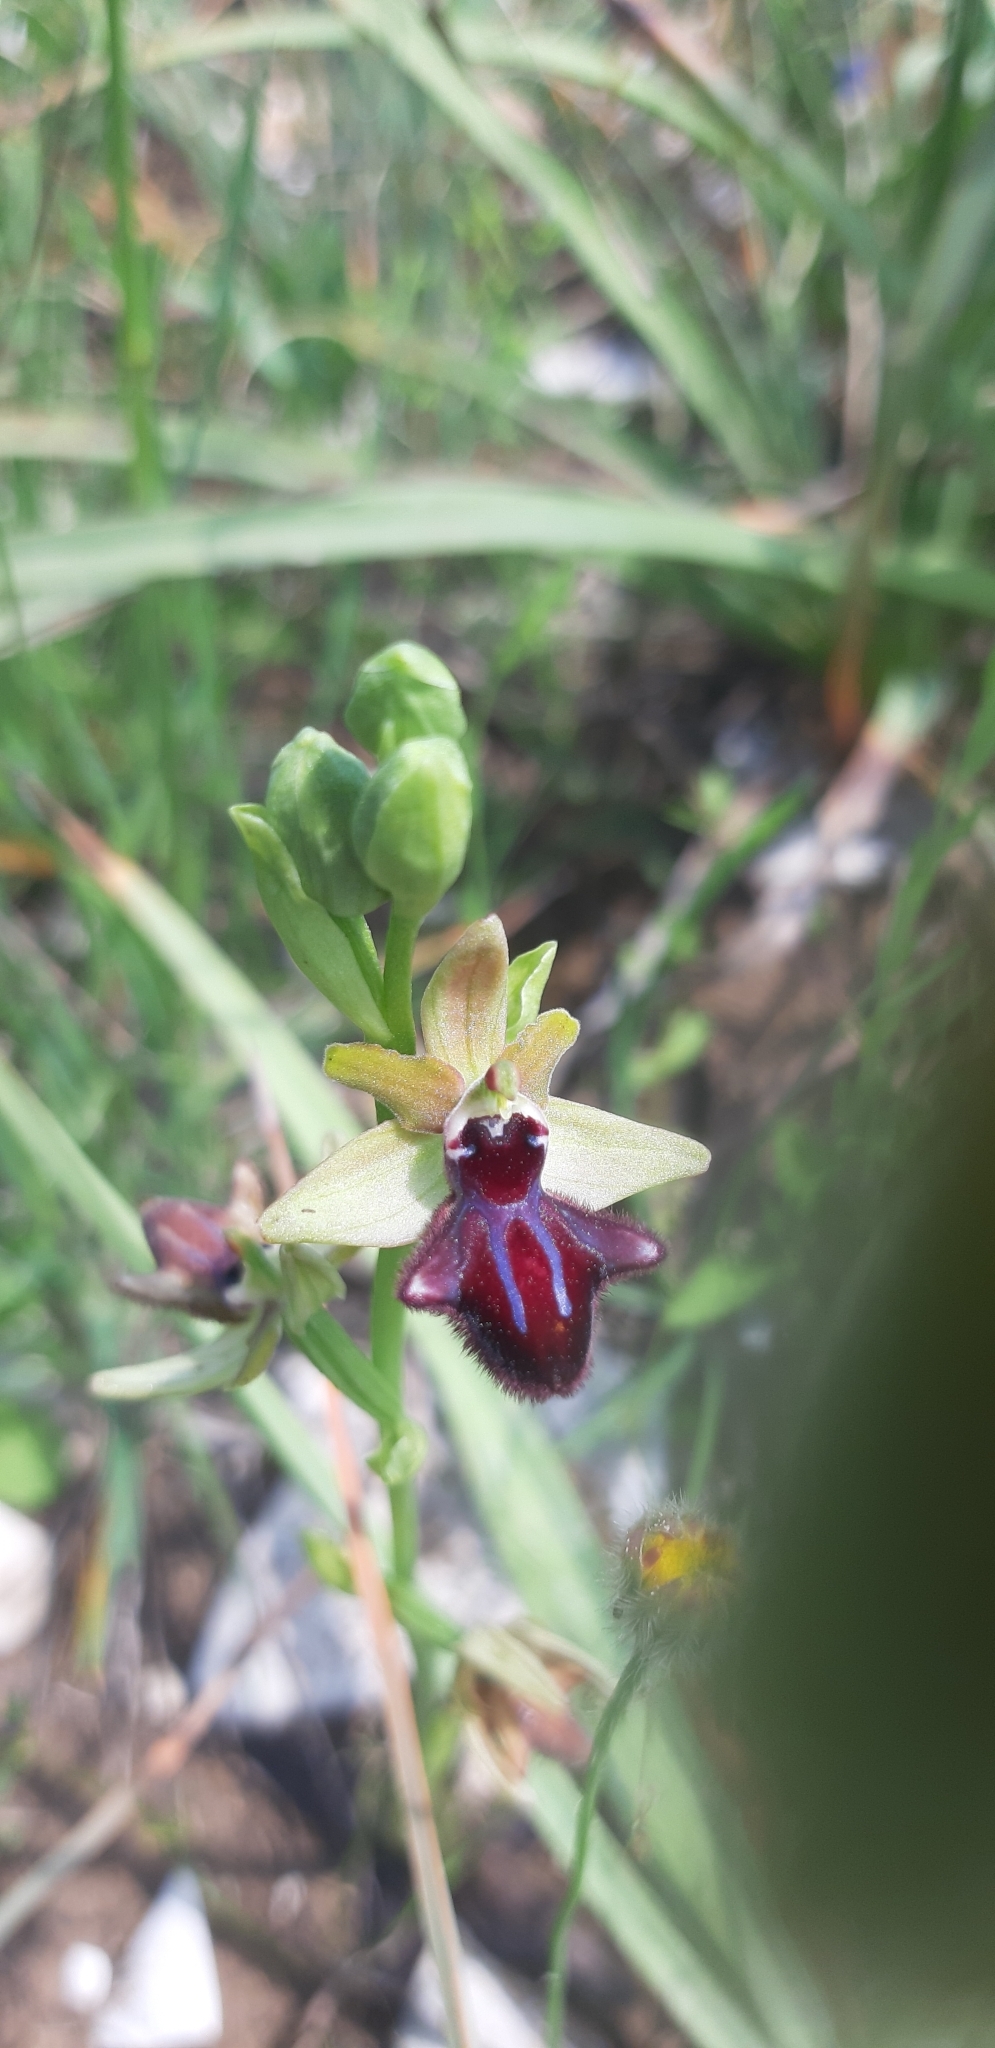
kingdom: Plantae
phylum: Tracheophyta
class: Liliopsida
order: Asparagales
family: Orchidaceae
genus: Ophrys
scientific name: Ophrys sphegodes
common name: Early spider-orchid
